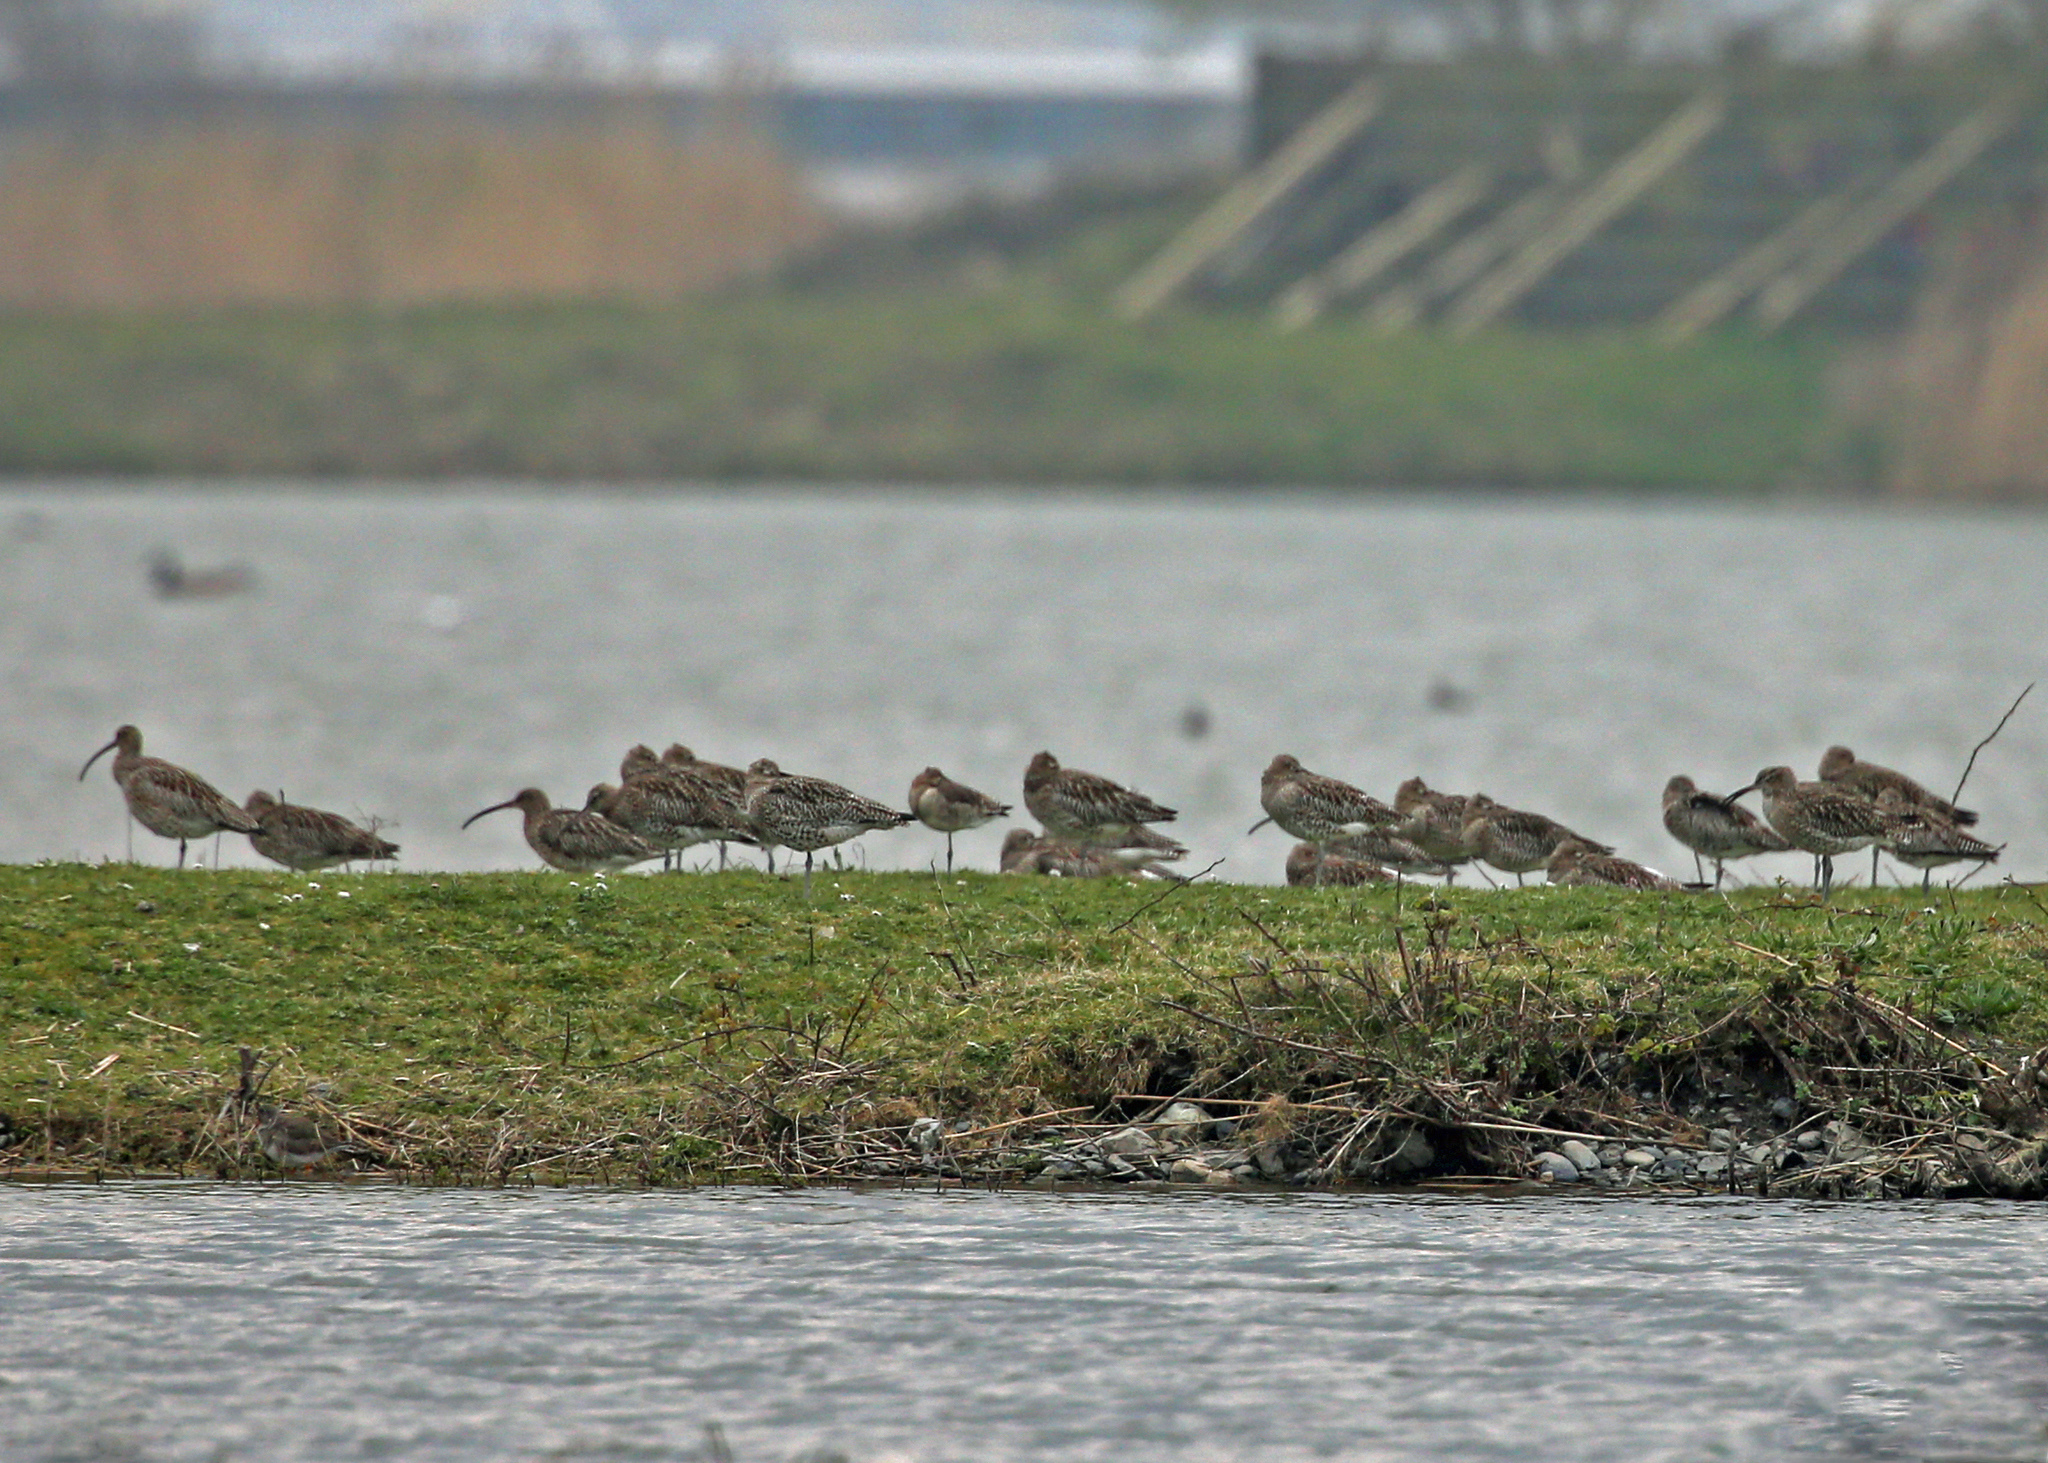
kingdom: Animalia
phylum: Chordata
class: Aves
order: Charadriiformes
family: Scolopacidae
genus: Numenius
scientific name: Numenius arquata
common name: Eurasian curlew
